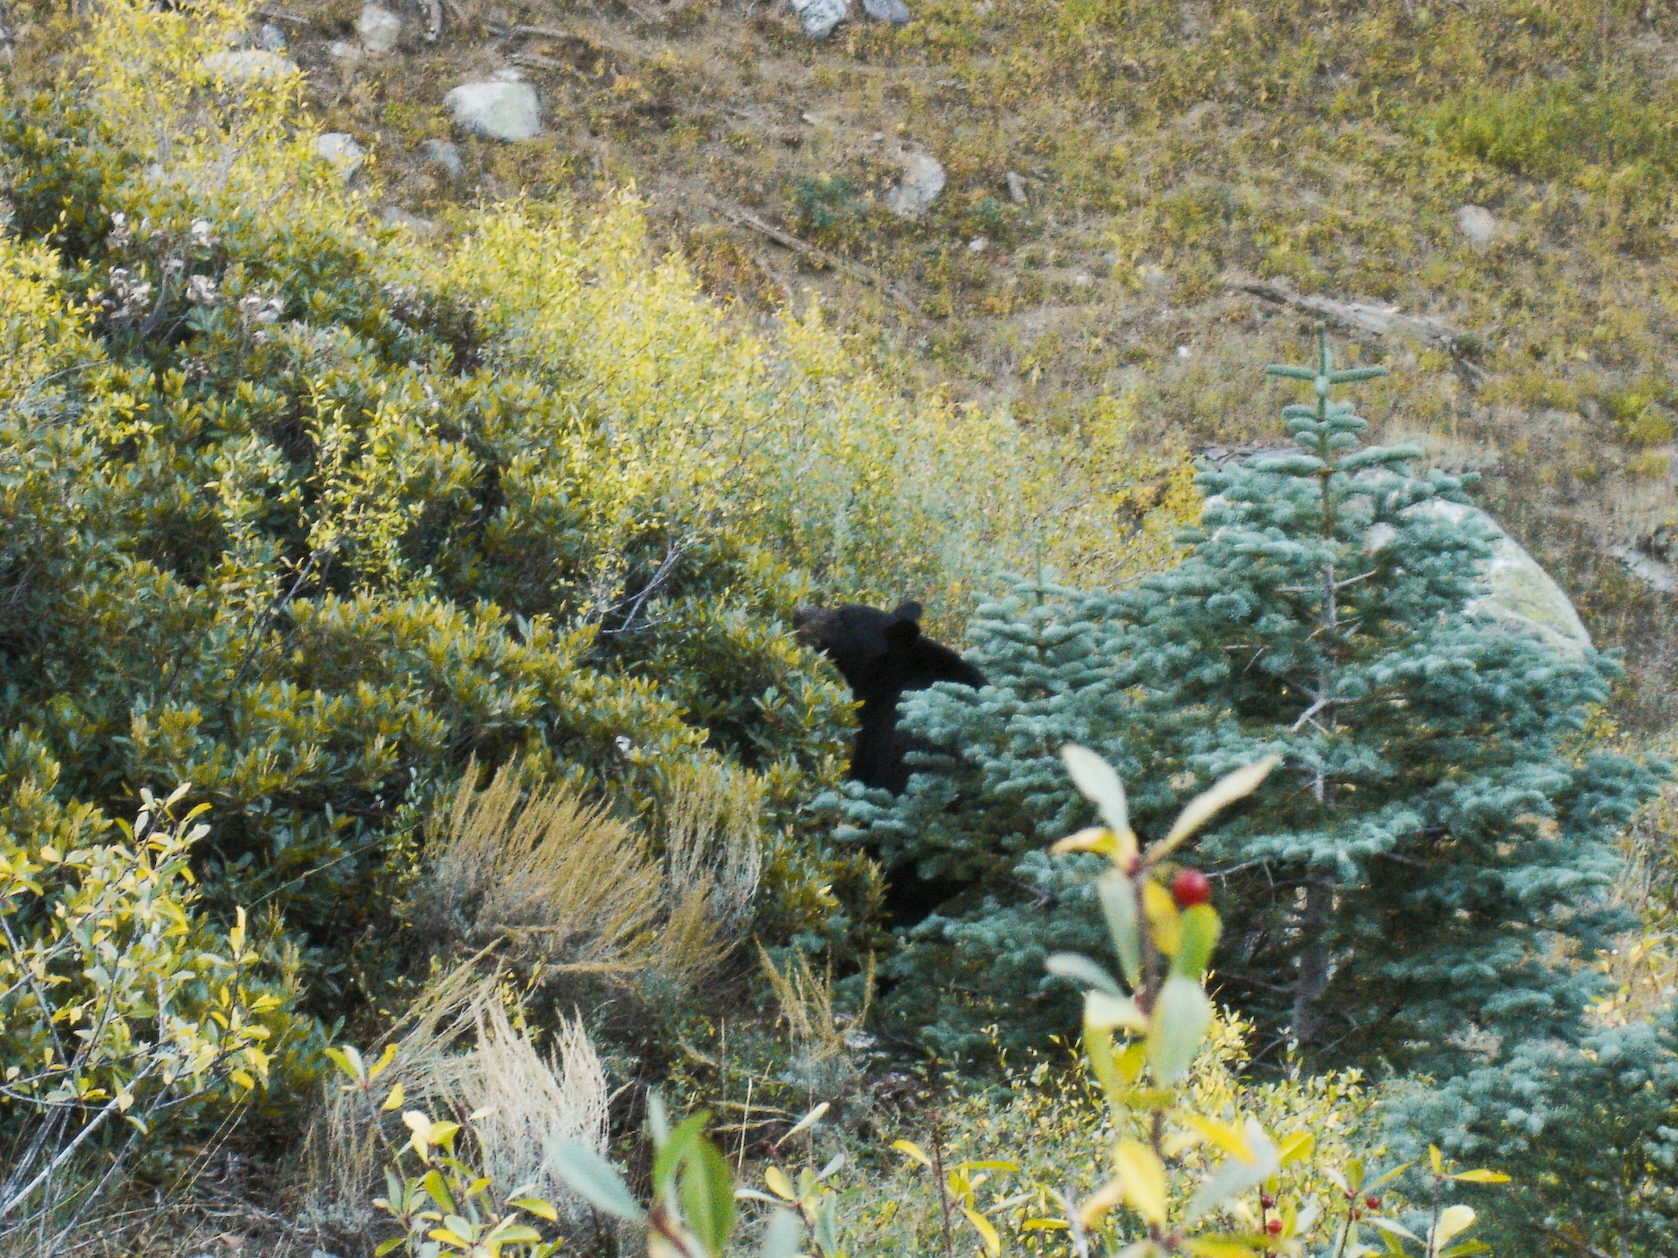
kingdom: Animalia
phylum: Chordata
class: Mammalia
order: Carnivora
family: Ursidae
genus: Ursus
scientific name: Ursus americanus
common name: American black bear
